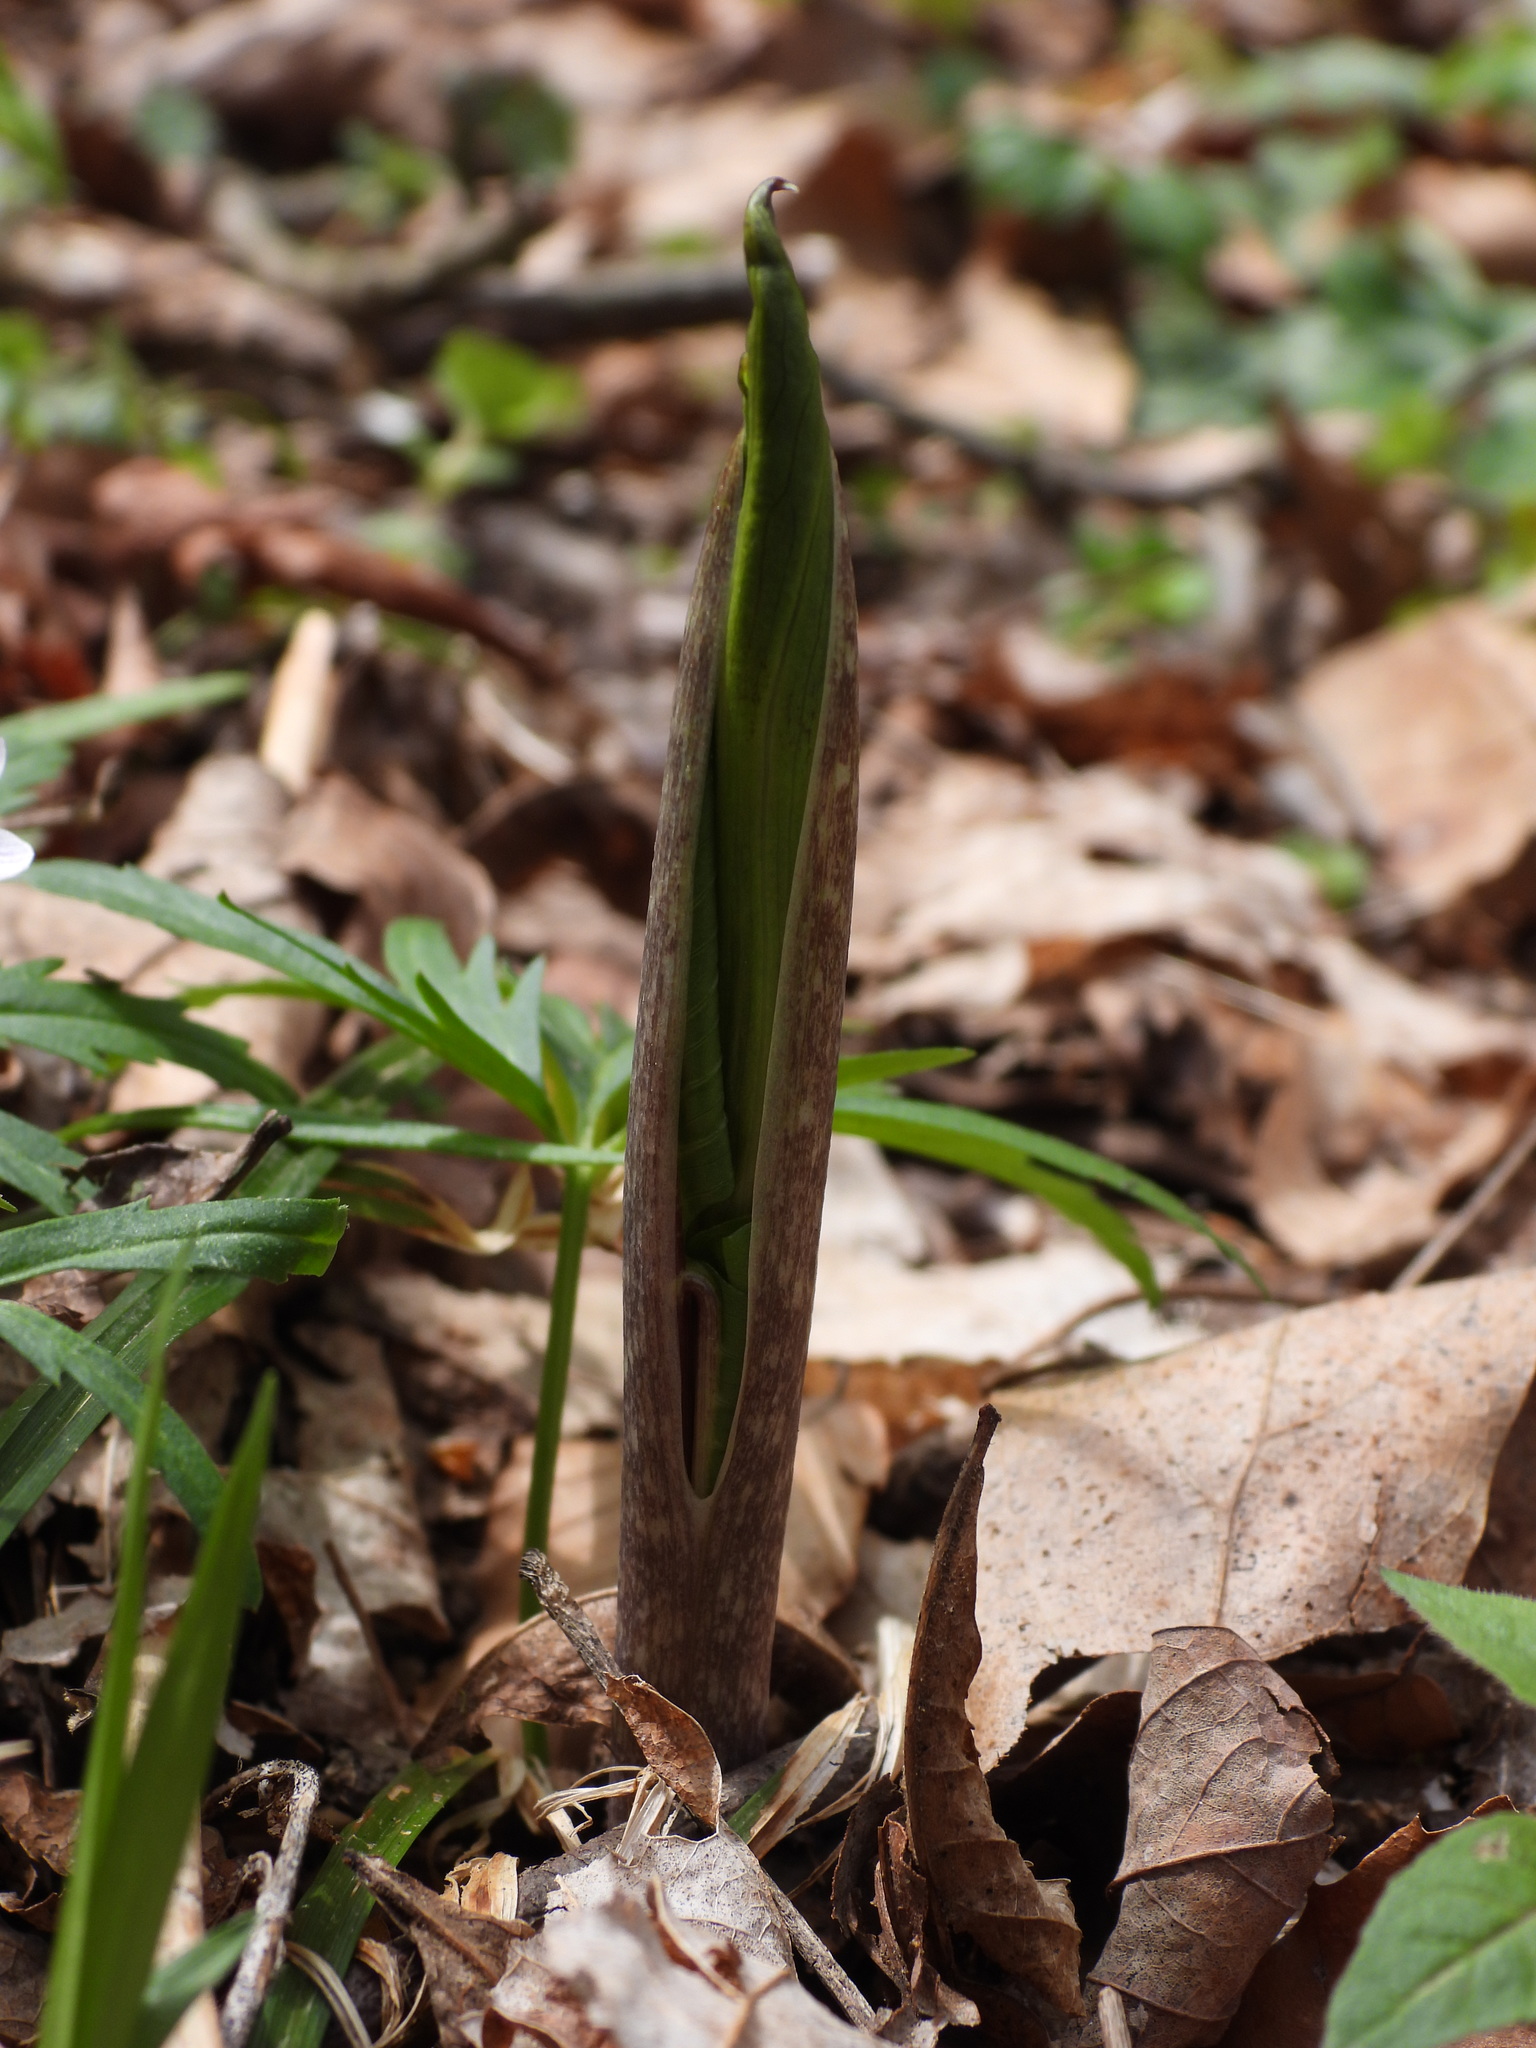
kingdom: Plantae
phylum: Tracheophyta
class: Liliopsida
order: Alismatales
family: Araceae
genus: Arisaema
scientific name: Arisaema triphyllum
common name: Jack-in-the-pulpit
